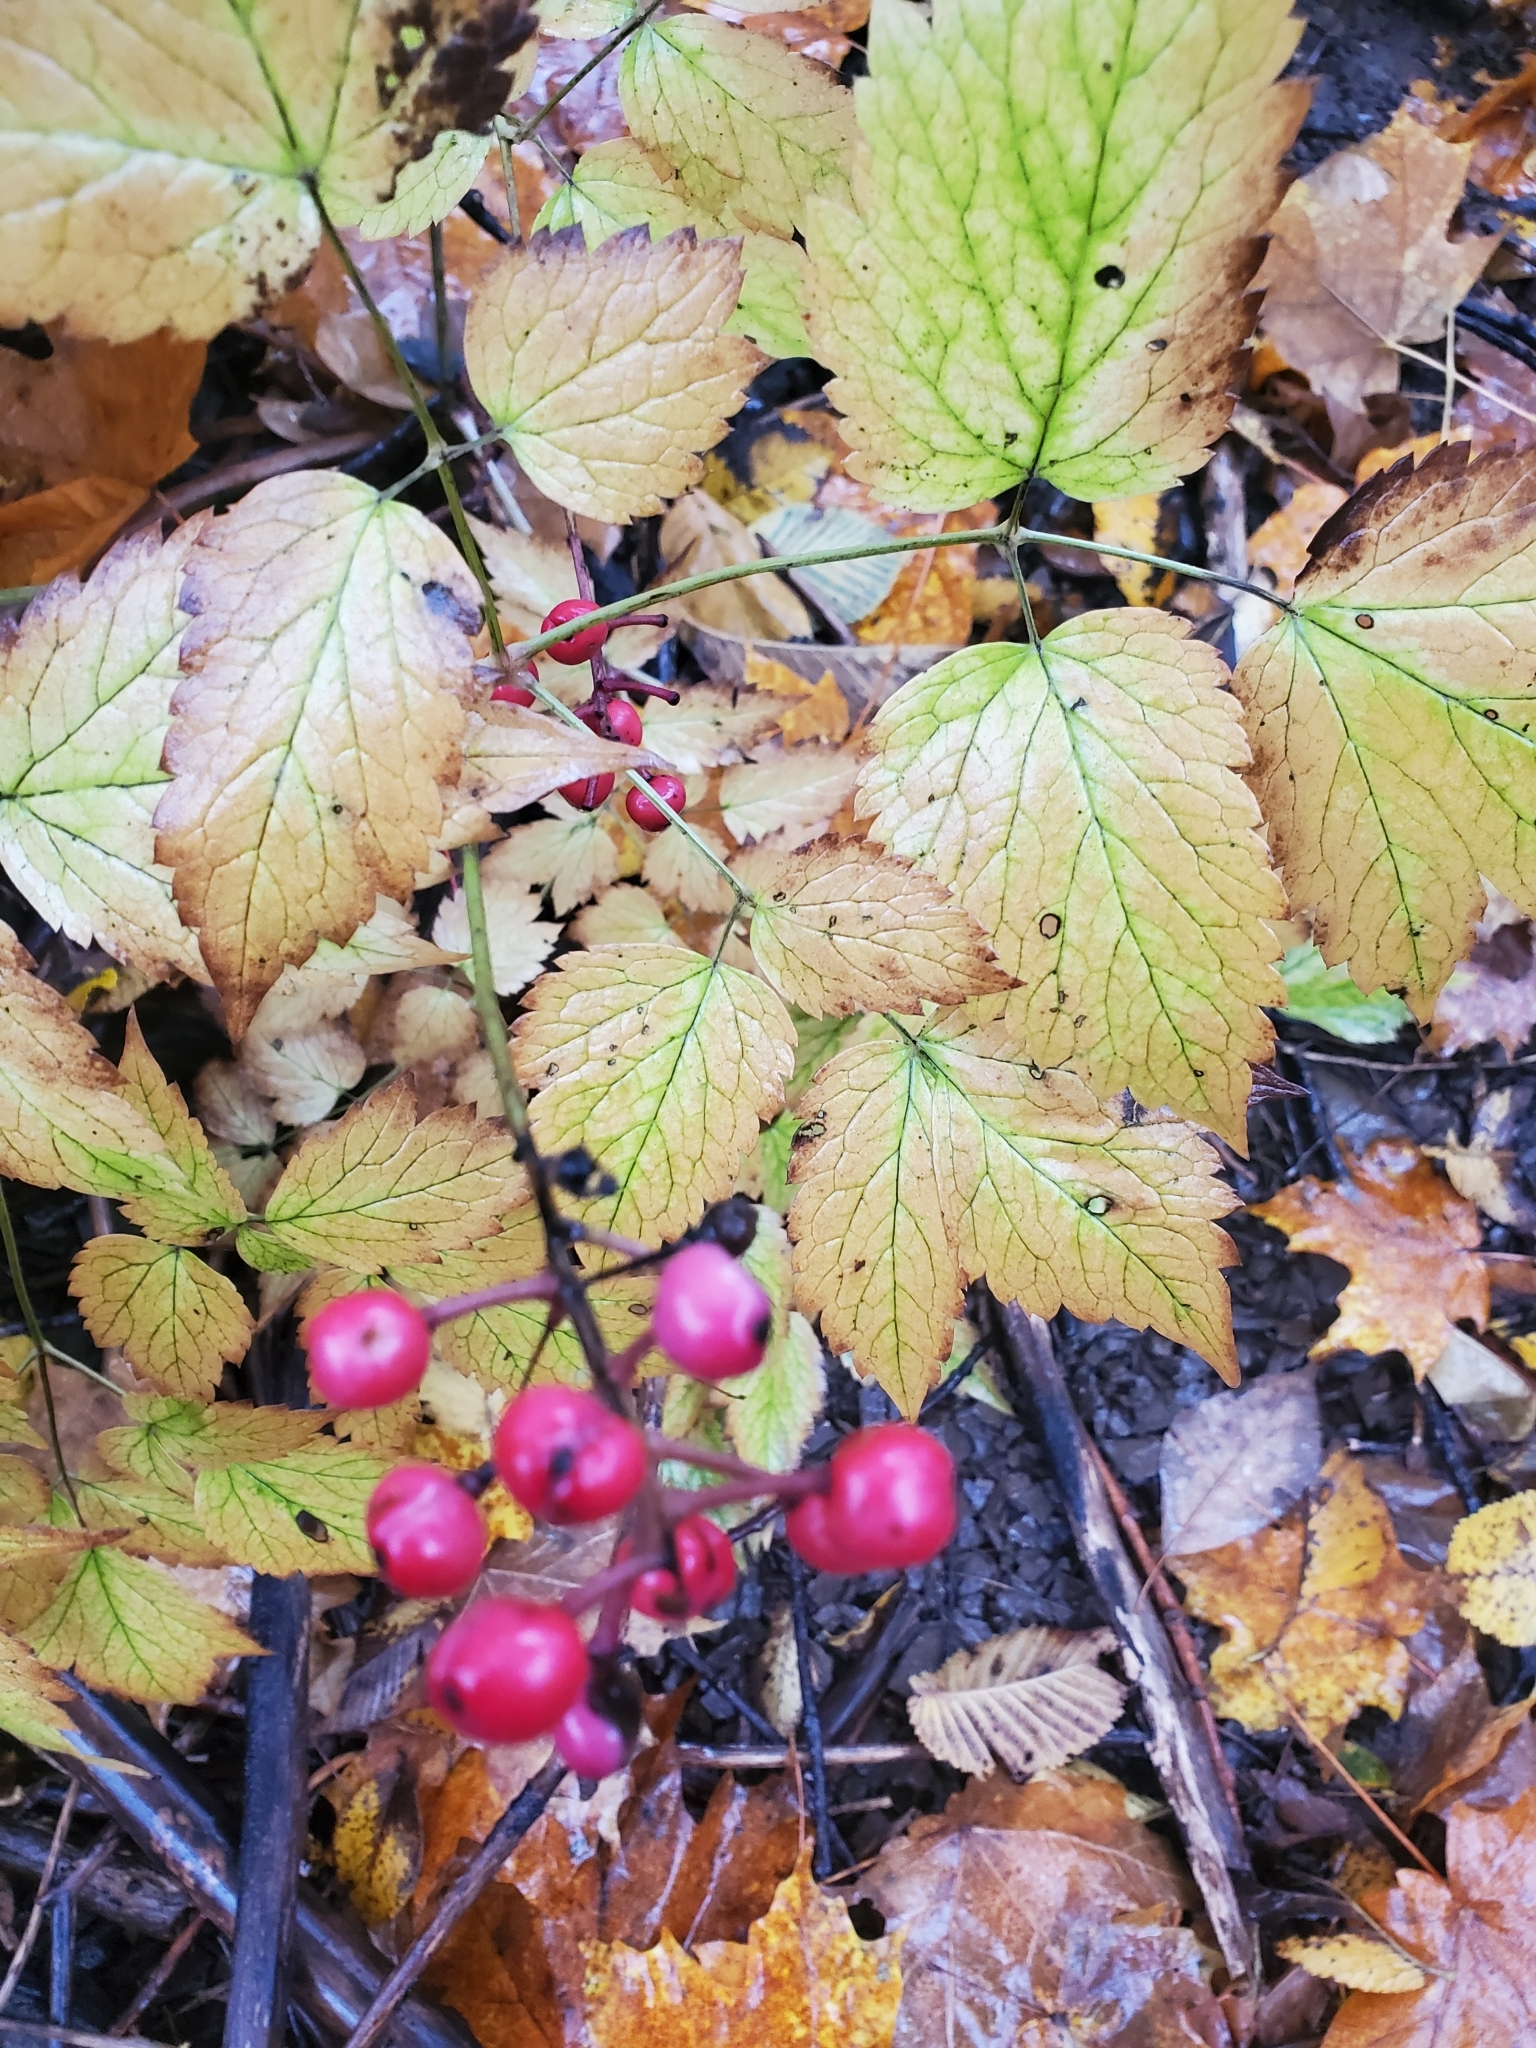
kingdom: Plantae
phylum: Tracheophyta
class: Magnoliopsida
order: Ranunculales
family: Ranunculaceae
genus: Actaea
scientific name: Actaea ludovici
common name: Ludovic's baneberry
